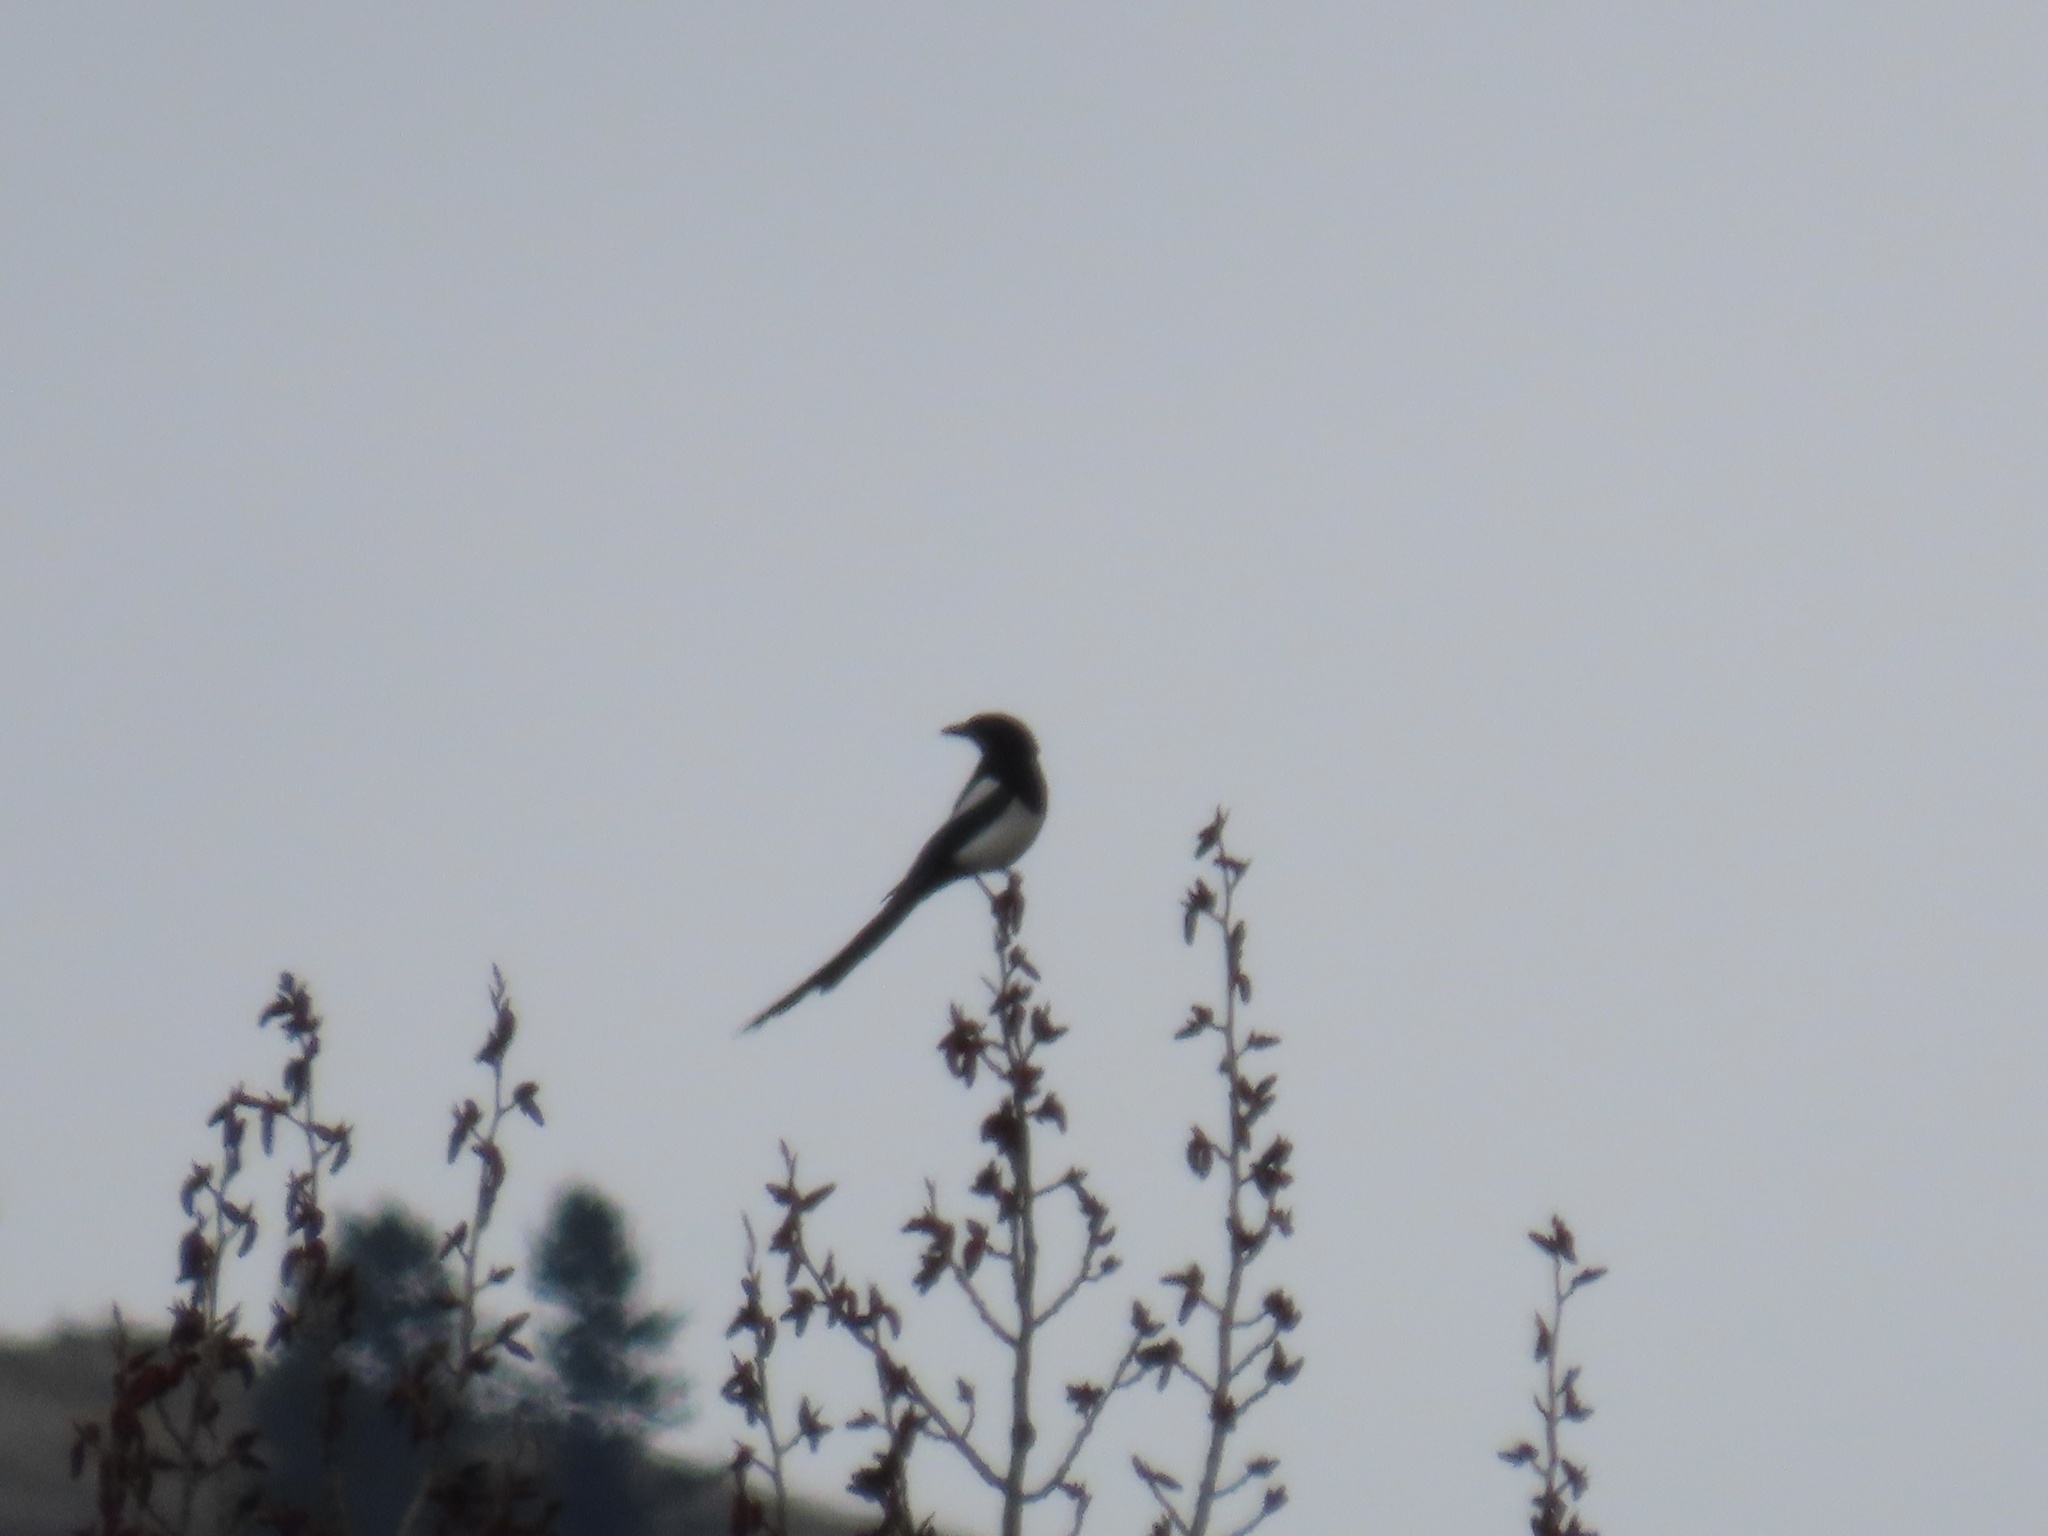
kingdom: Animalia
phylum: Chordata
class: Aves
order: Passeriformes
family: Corvidae
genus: Pica
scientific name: Pica hudsonia
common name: Black-billed magpie
